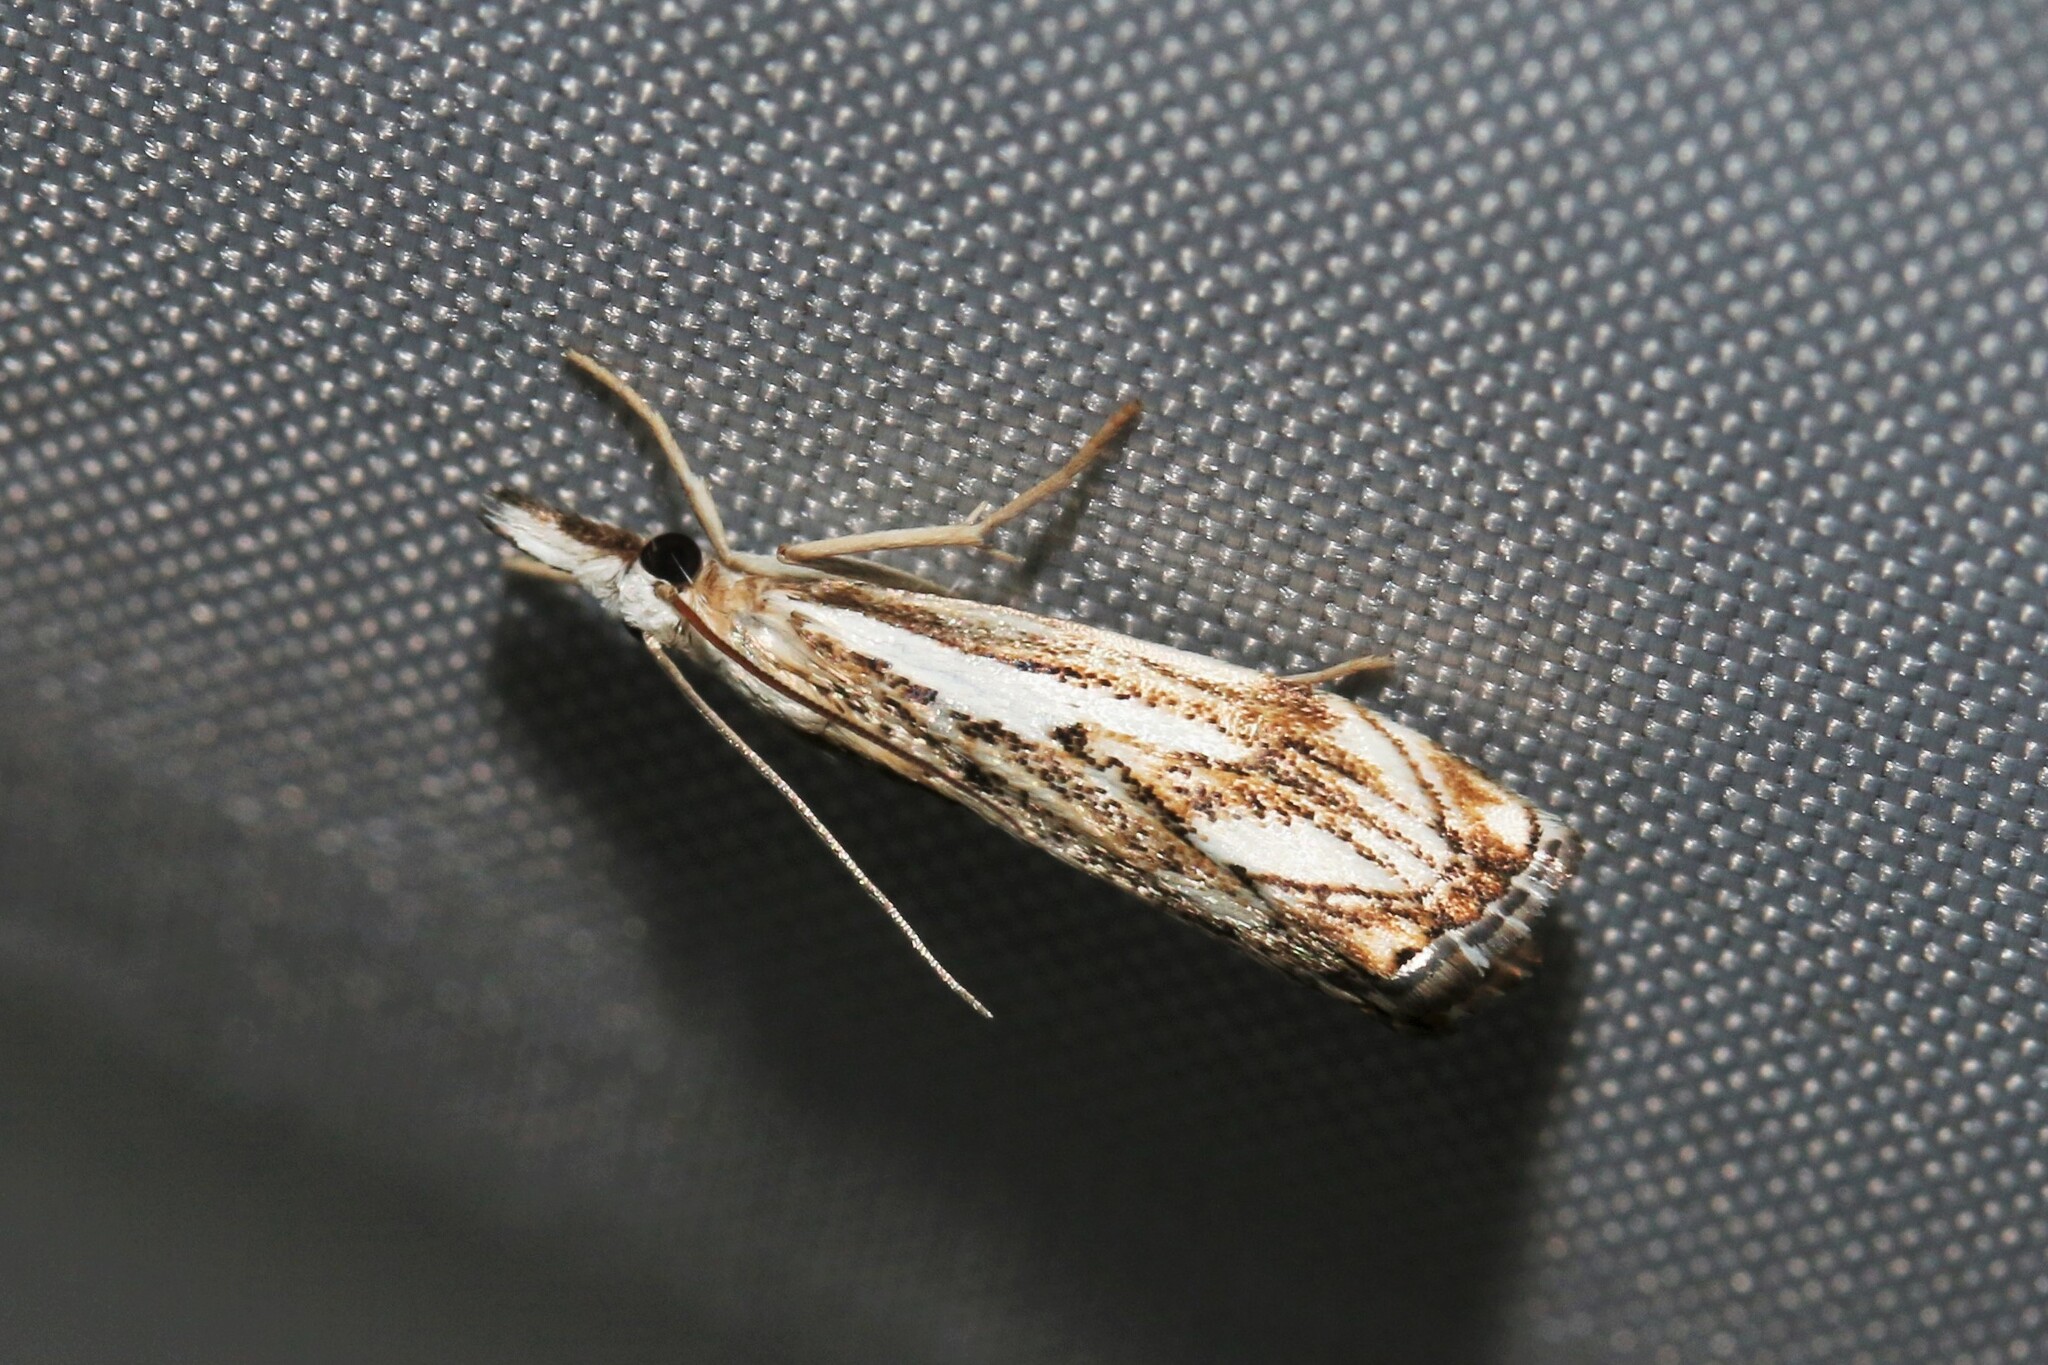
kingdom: Animalia
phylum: Arthropoda
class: Insecta
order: Lepidoptera
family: Crambidae
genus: Catoptria
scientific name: Catoptria falsella
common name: Chequered grass-veneer
